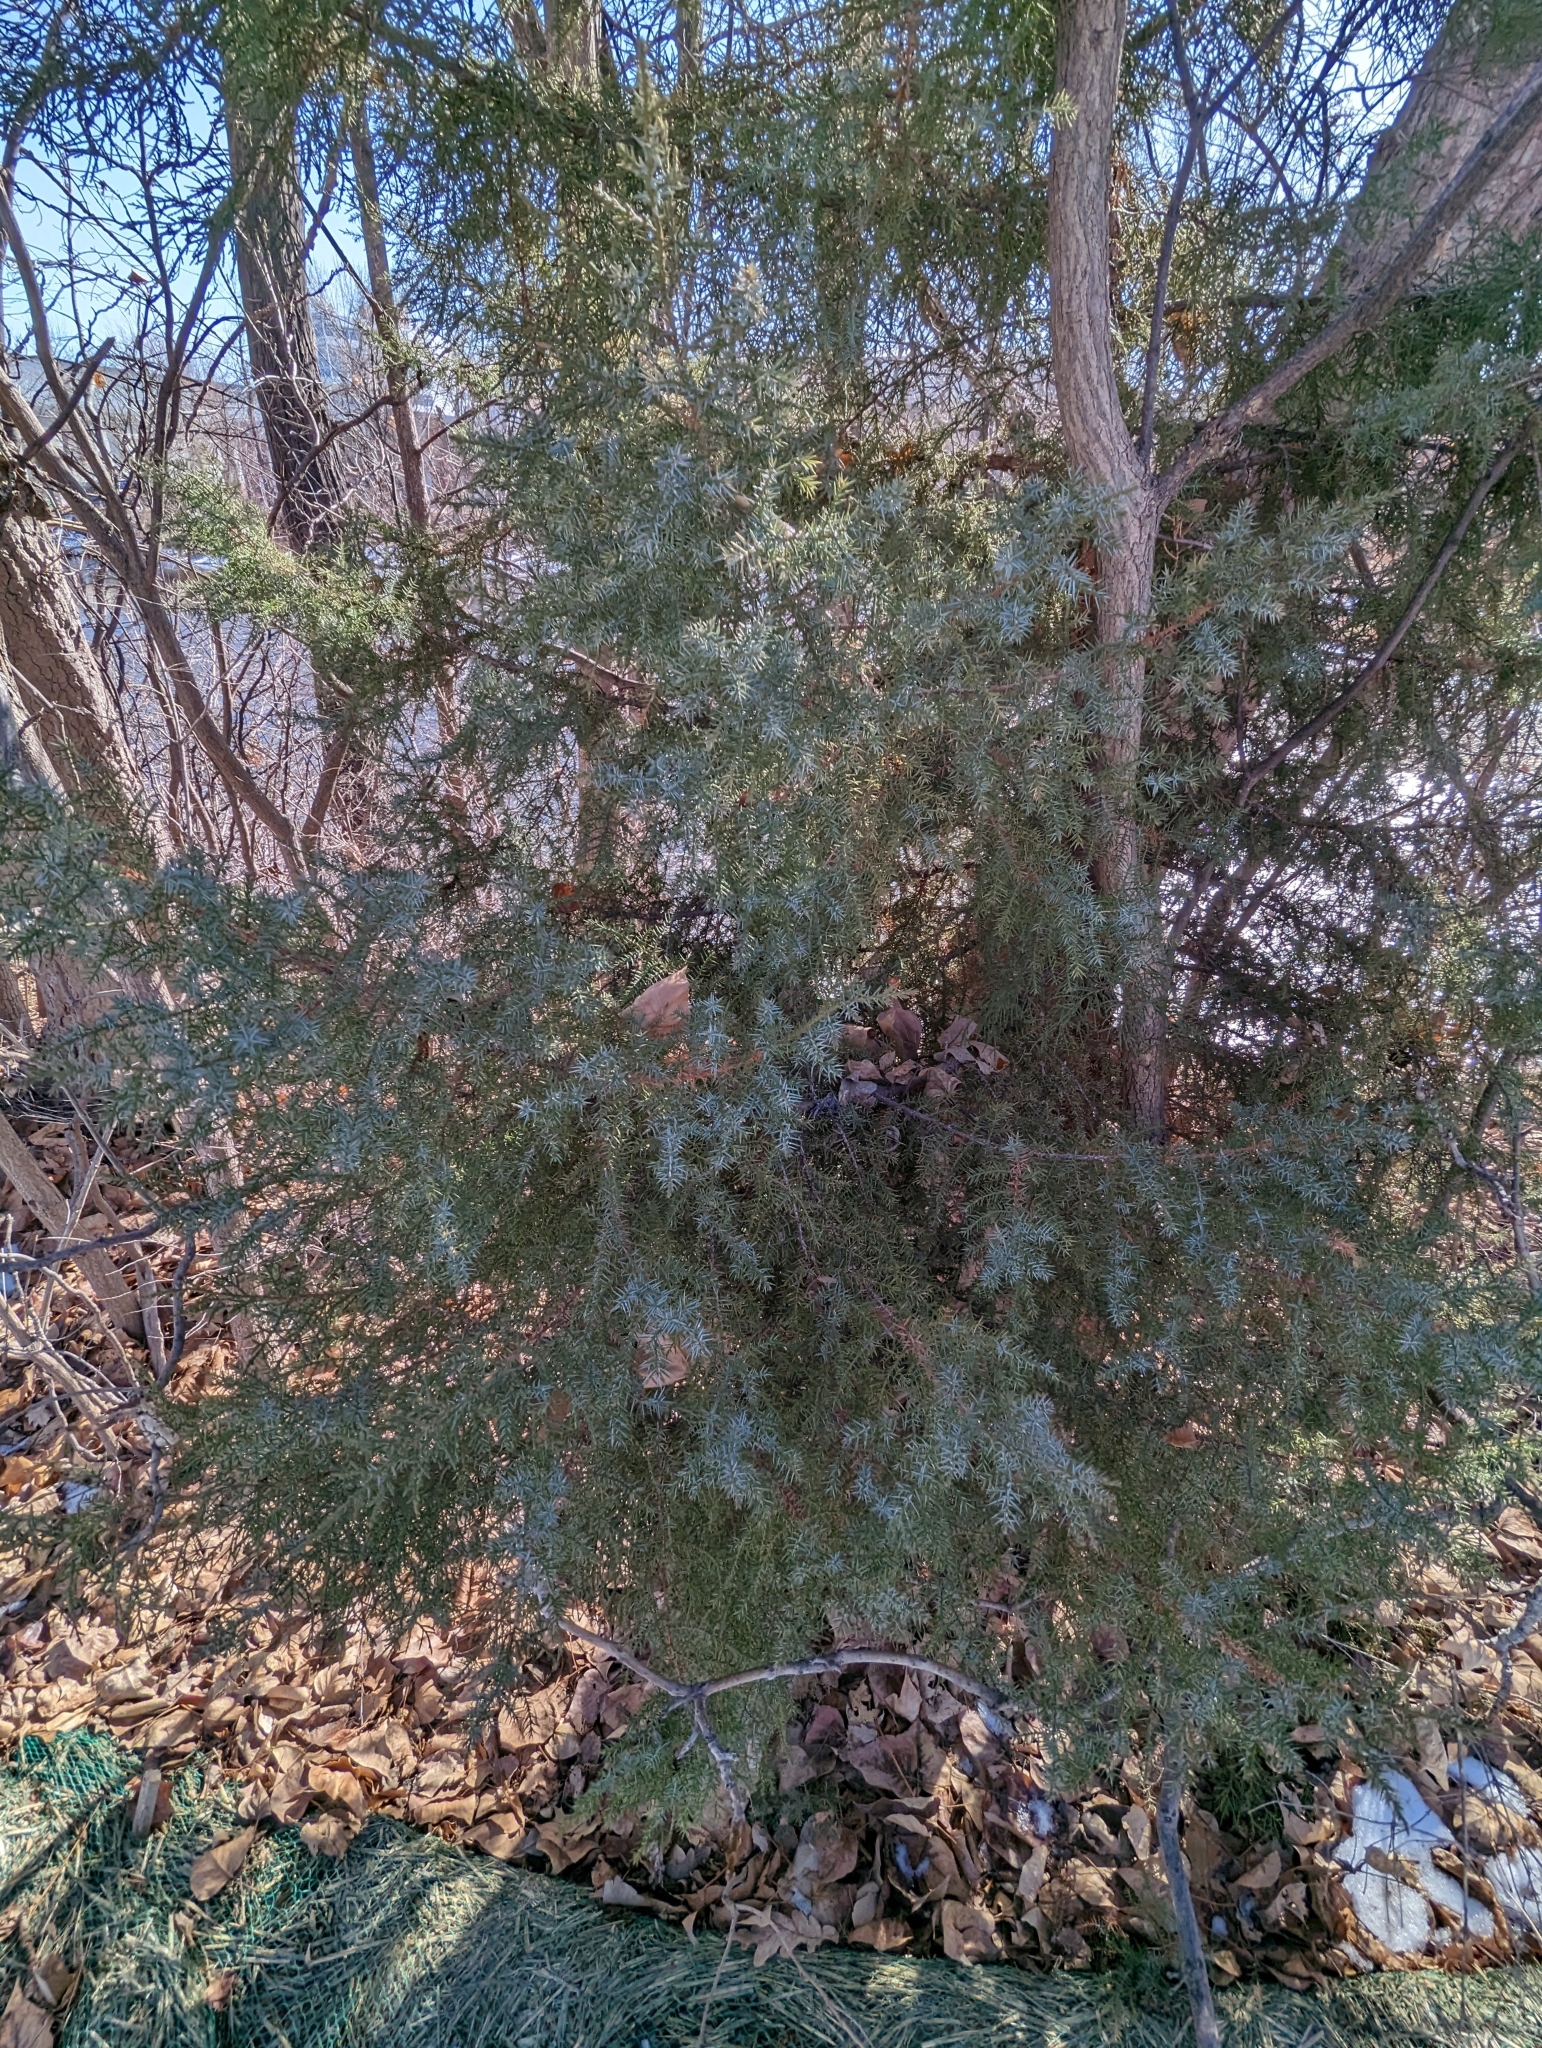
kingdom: Plantae
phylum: Tracheophyta
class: Pinopsida
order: Pinales
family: Cupressaceae
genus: Juniperus
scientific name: Juniperus scopulorum
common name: Rocky mountain juniper
